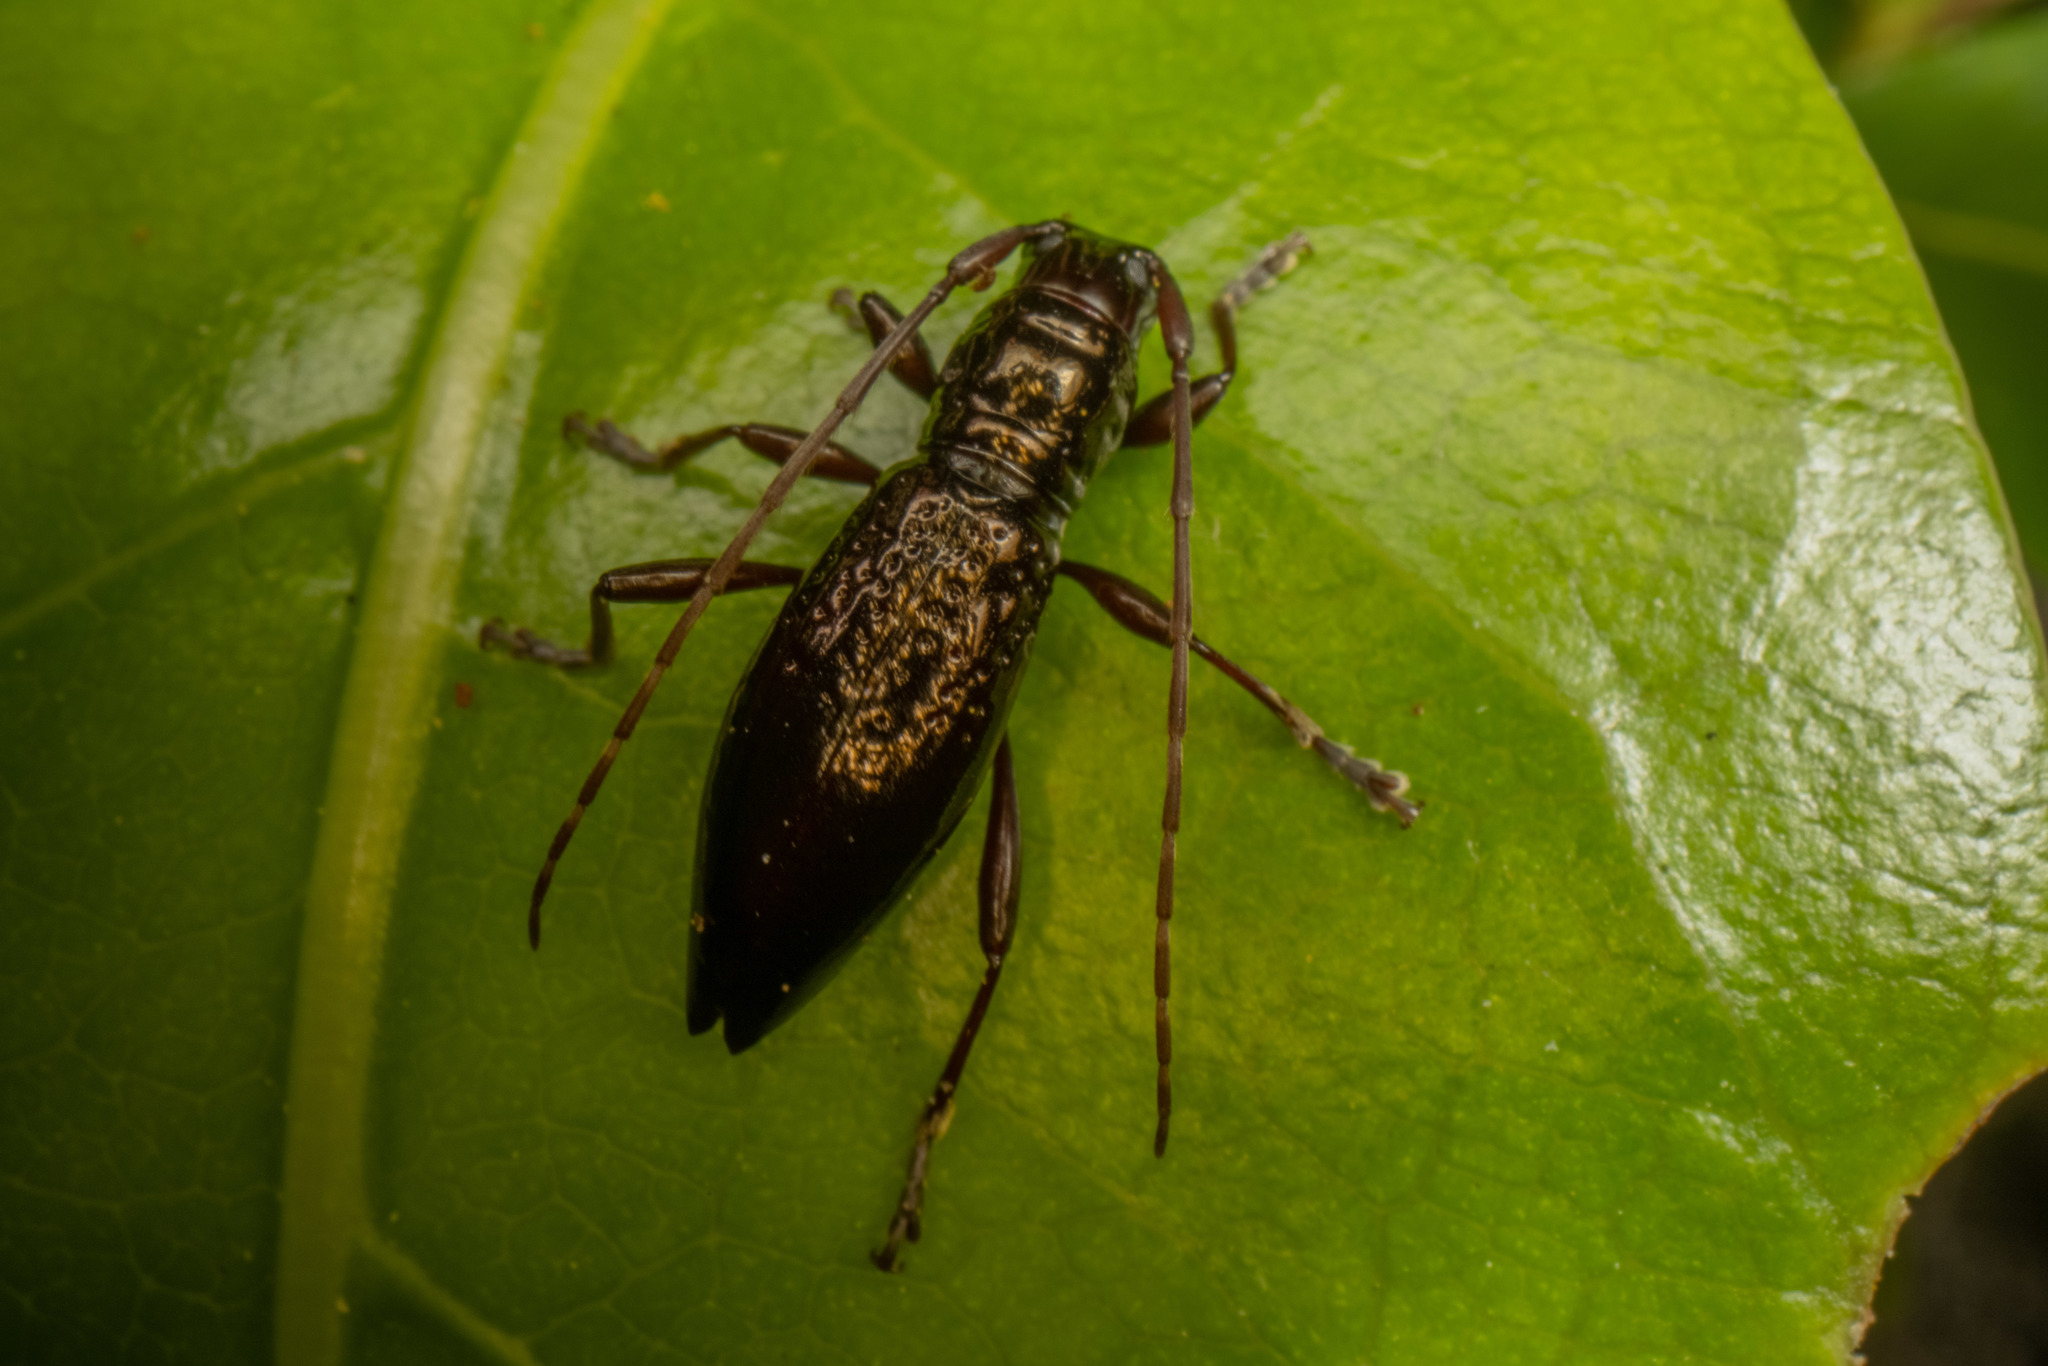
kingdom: Animalia
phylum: Arthropoda
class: Insecta
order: Coleoptera
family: Cerambycidae
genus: Xylotoles
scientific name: Xylotoles nudus
